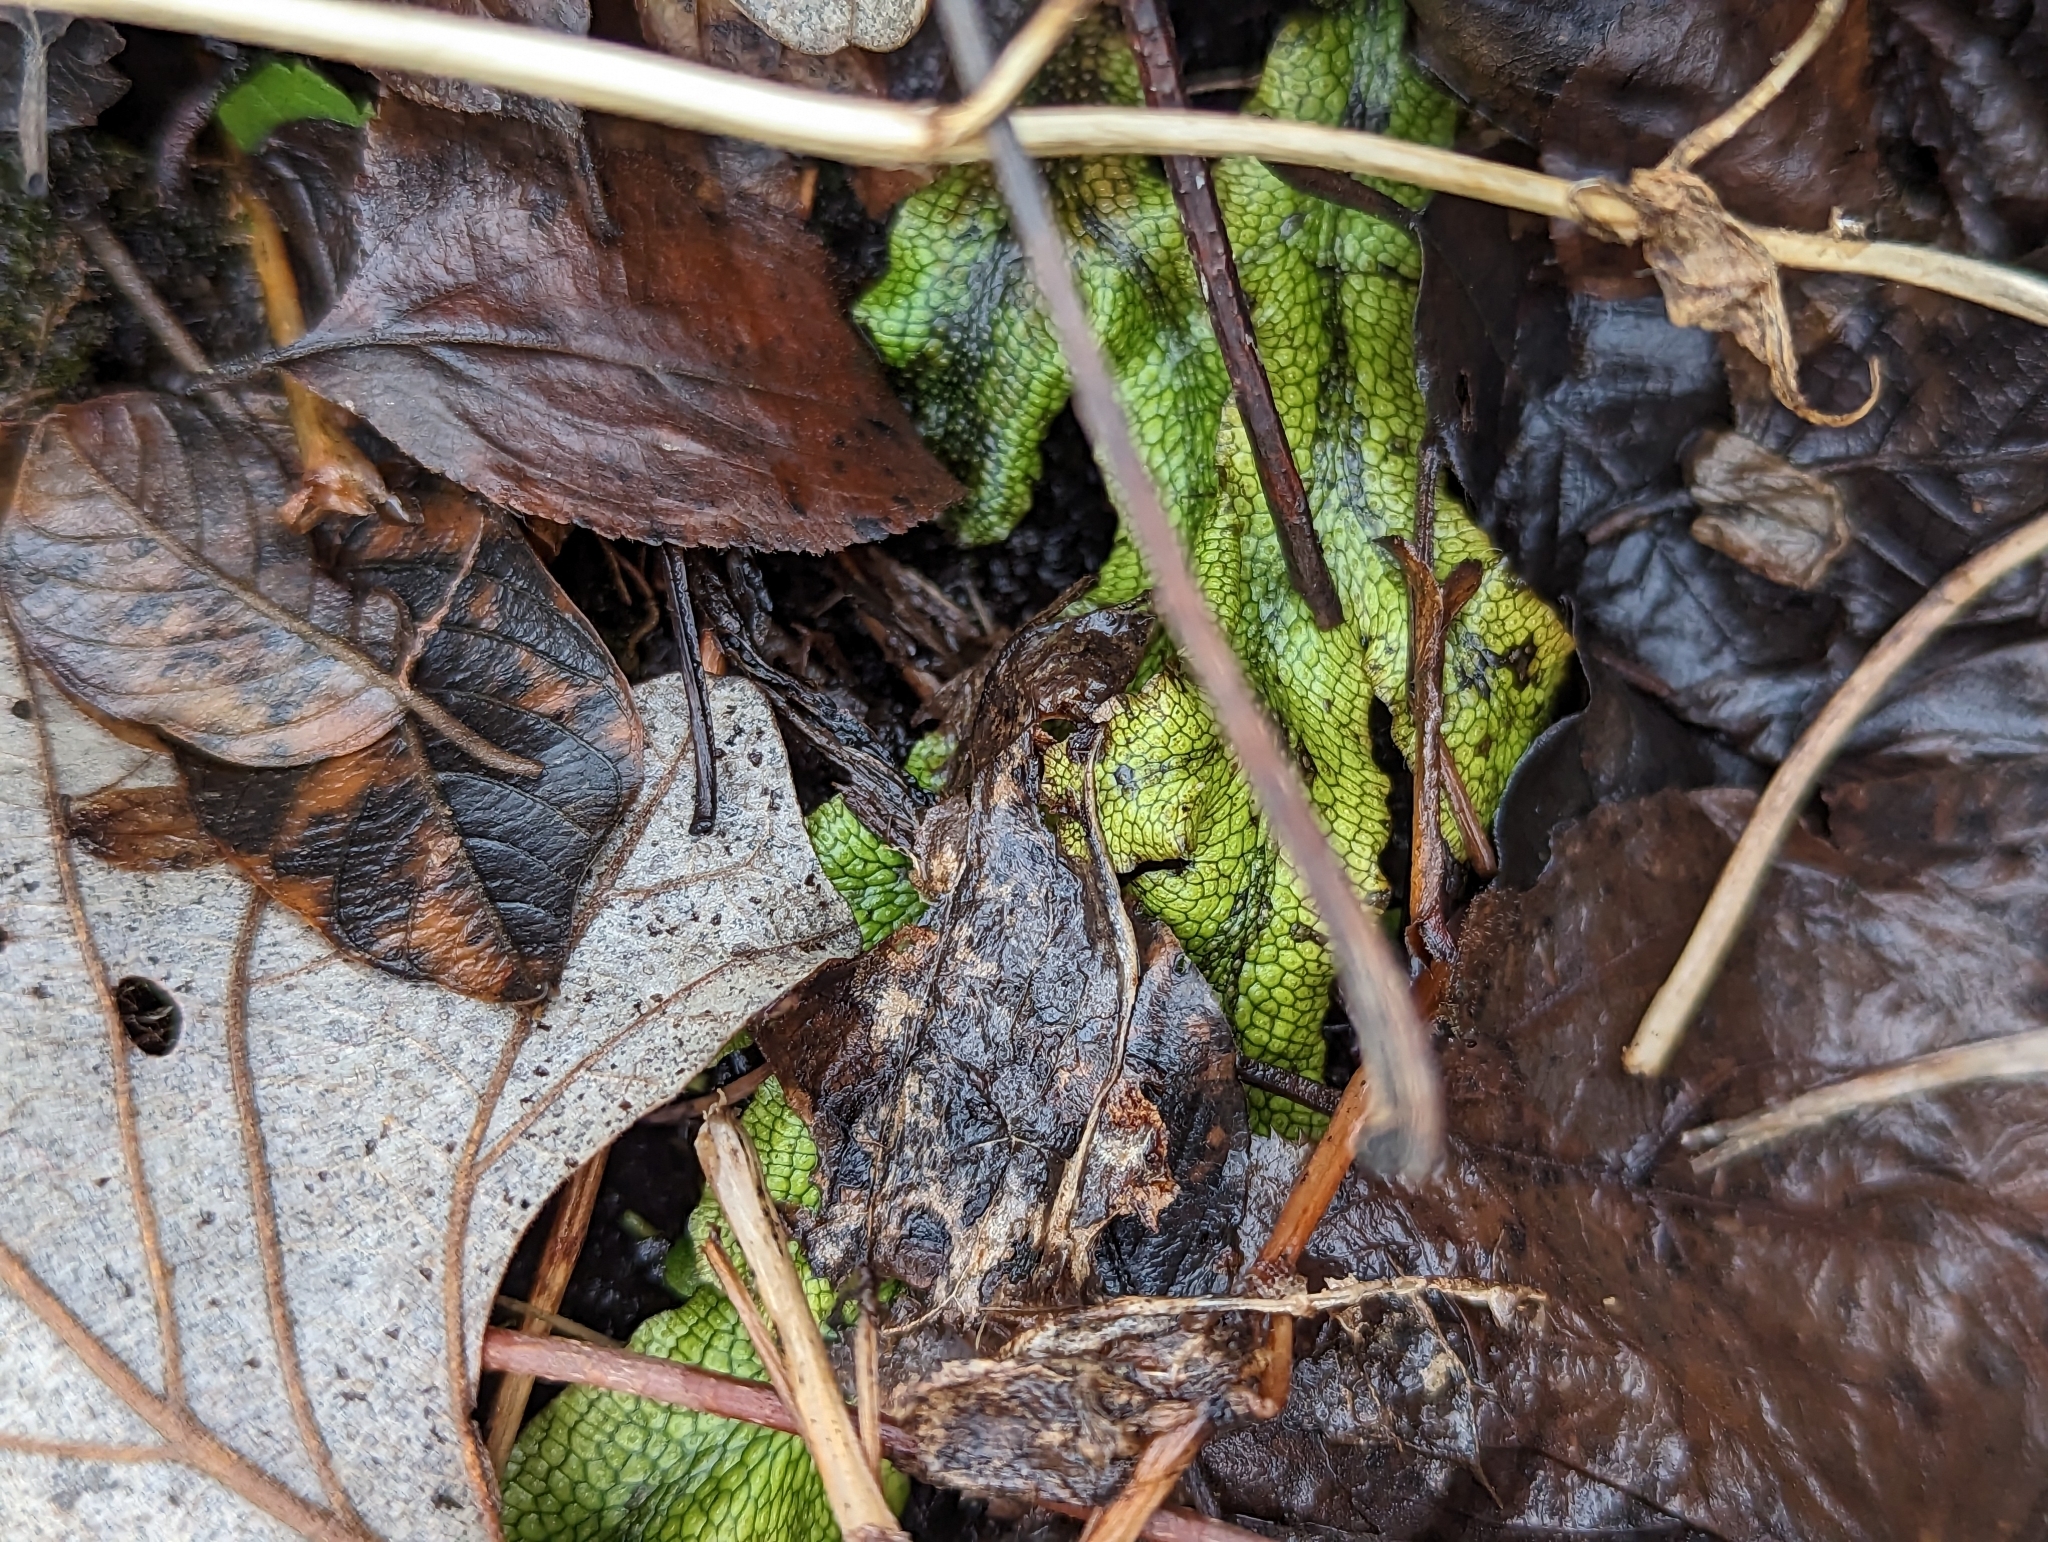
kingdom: Plantae
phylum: Marchantiophyta
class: Marchantiopsida
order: Marchantiales
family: Conocephalaceae
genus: Conocephalum
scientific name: Conocephalum salebrosum
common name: Cat-tongue liverwort
